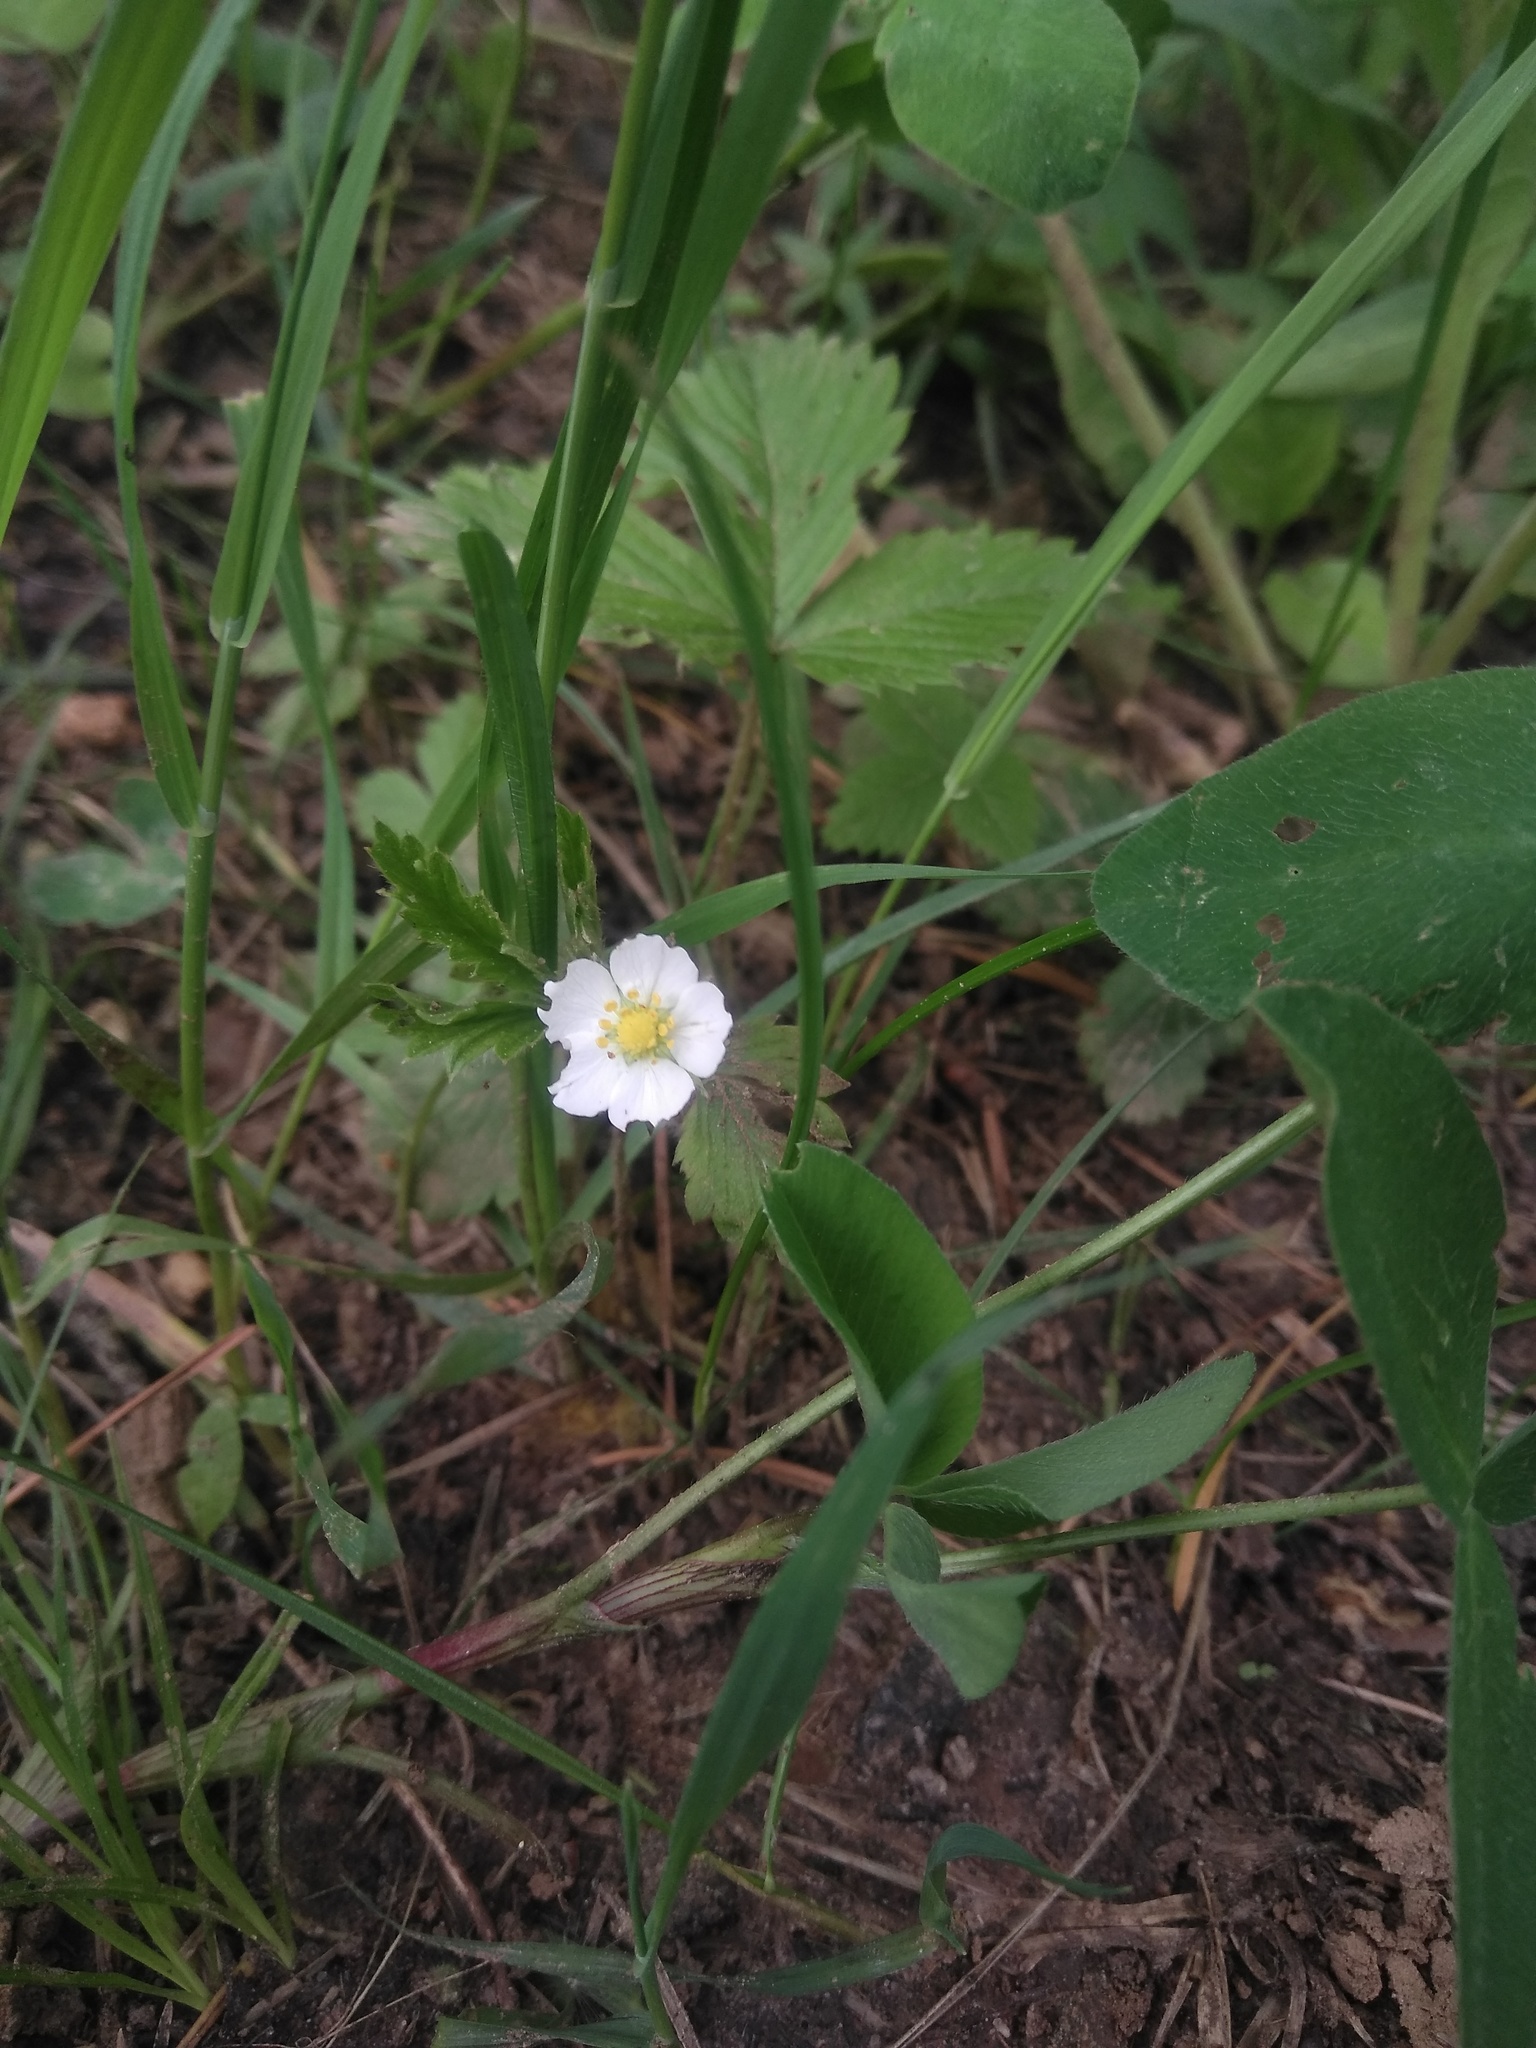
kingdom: Plantae
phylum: Tracheophyta
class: Magnoliopsida
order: Rosales
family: Rosaceae
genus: Fragaria
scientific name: Fragaria vesca
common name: Wild strawberry
